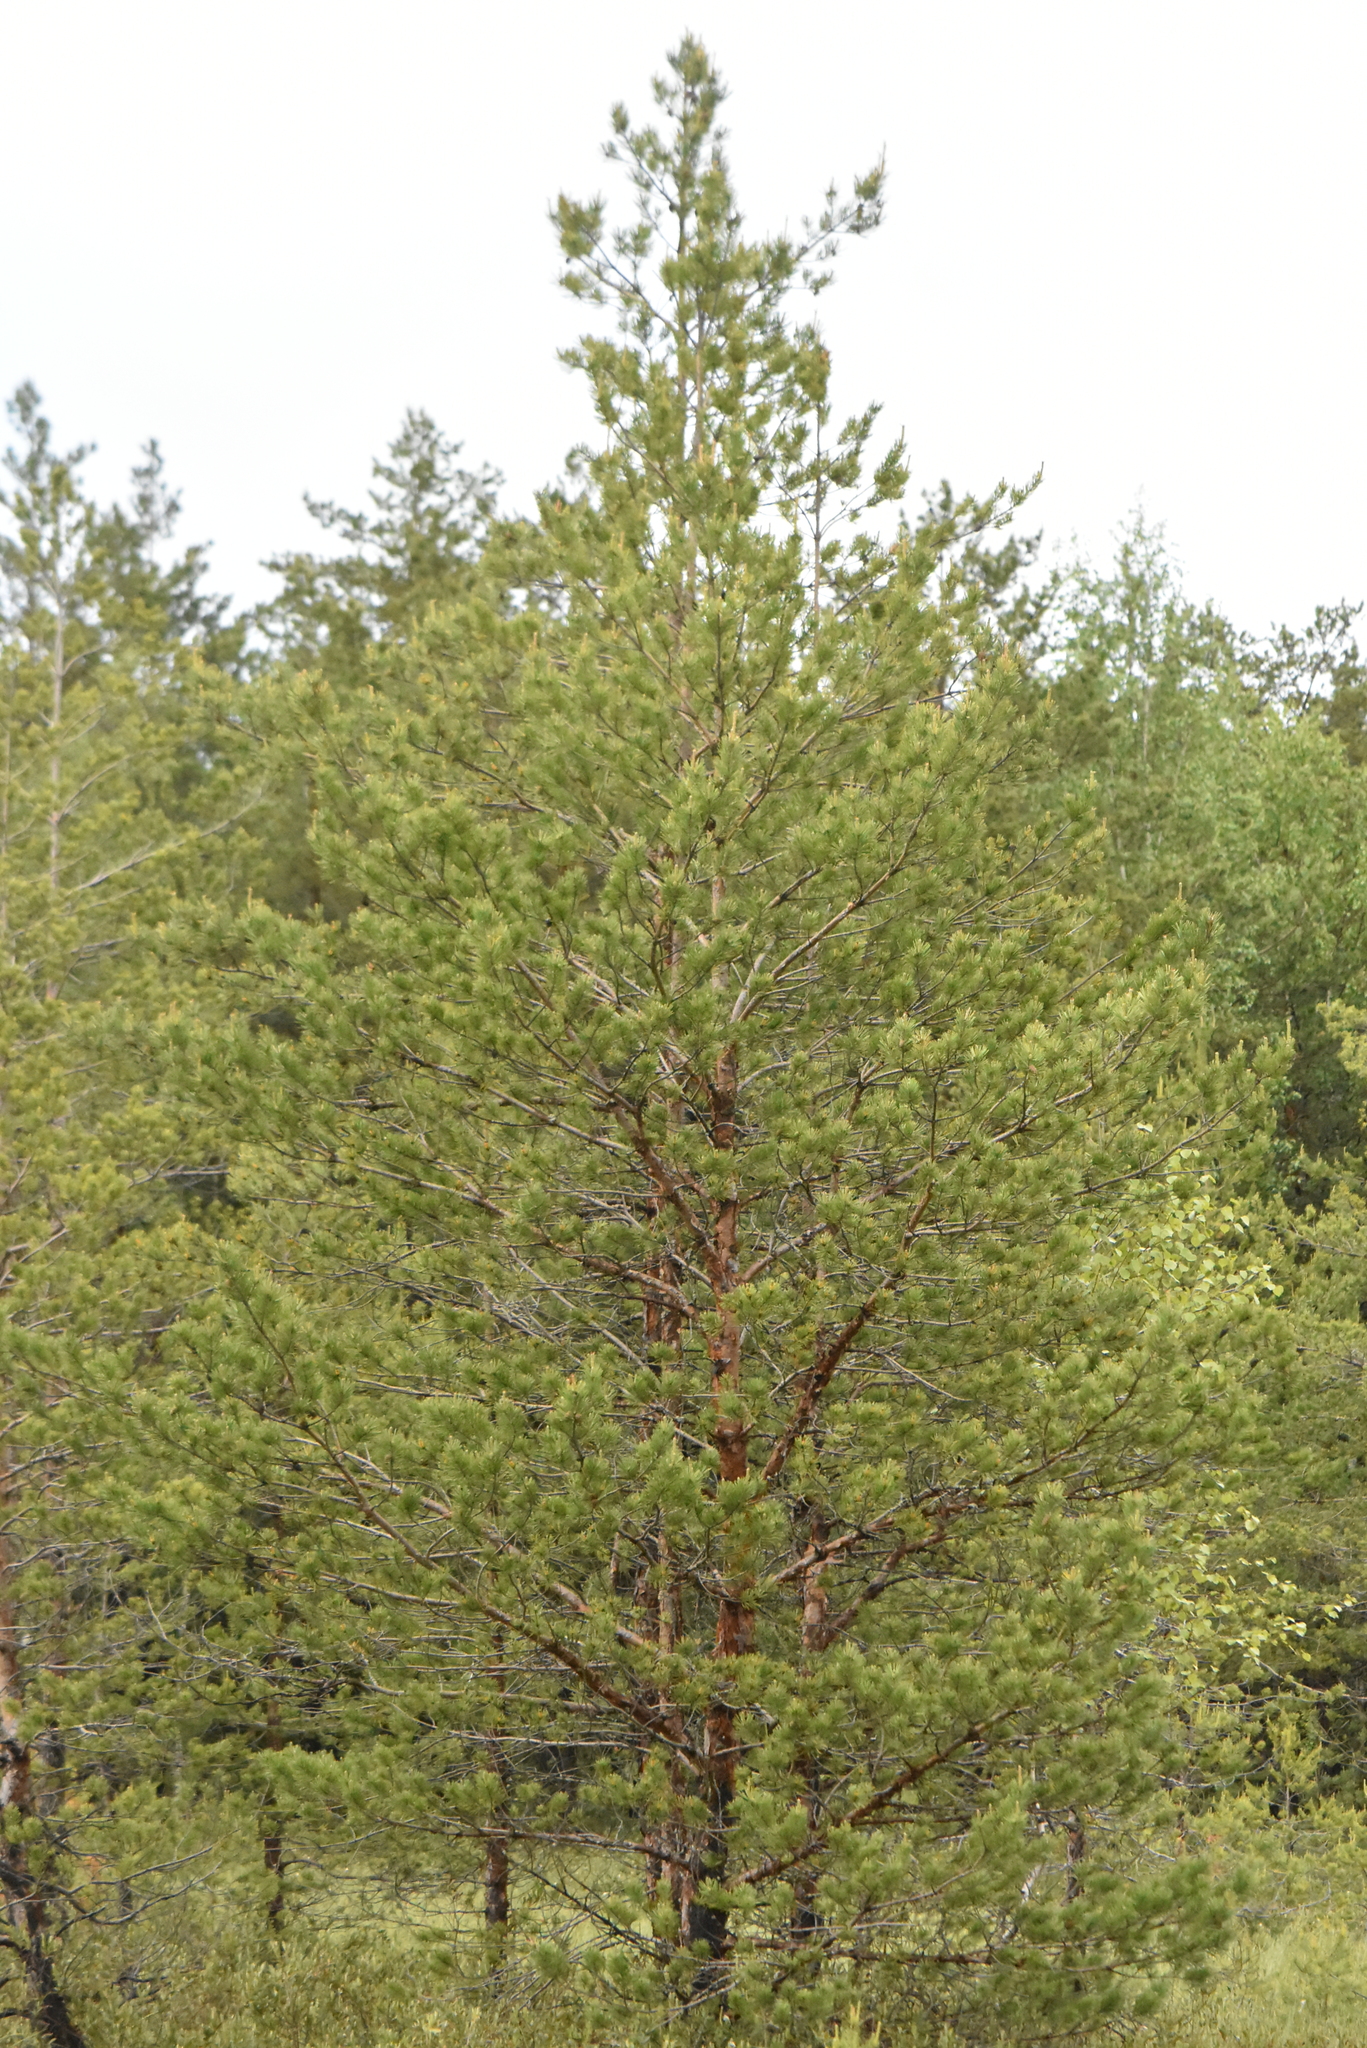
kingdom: Plantae
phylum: Tracheophyta
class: Pinopsida
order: Pinales
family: Pinaceae
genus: Pinus
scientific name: Pinus sylvestris
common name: Scots pine
